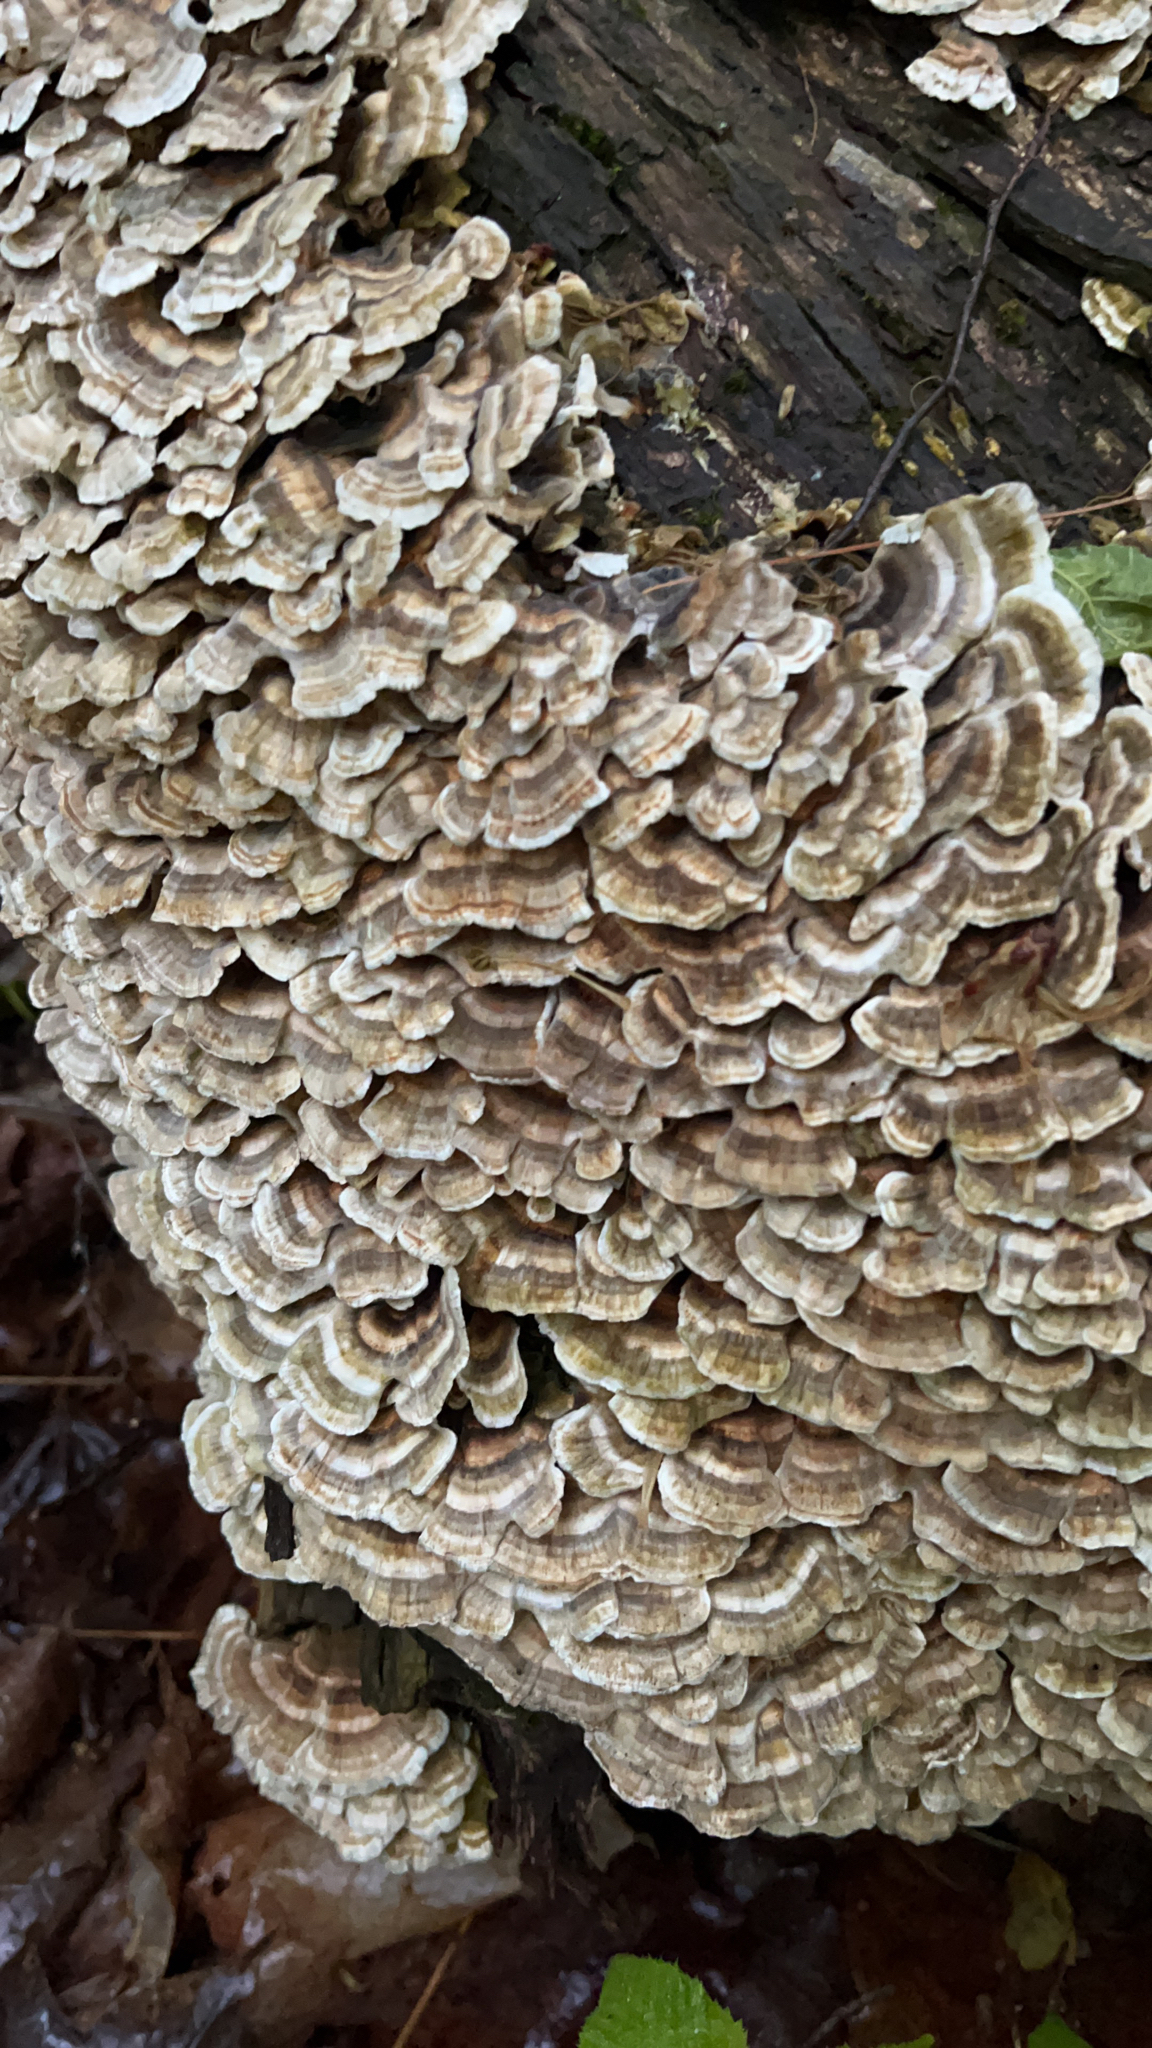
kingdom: Fungi
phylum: Basidiomycota
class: Agaricomycetes
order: Polyporales
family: Polyporaceae
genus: Trametes
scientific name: Trametes versicolor
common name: Turkeytail
